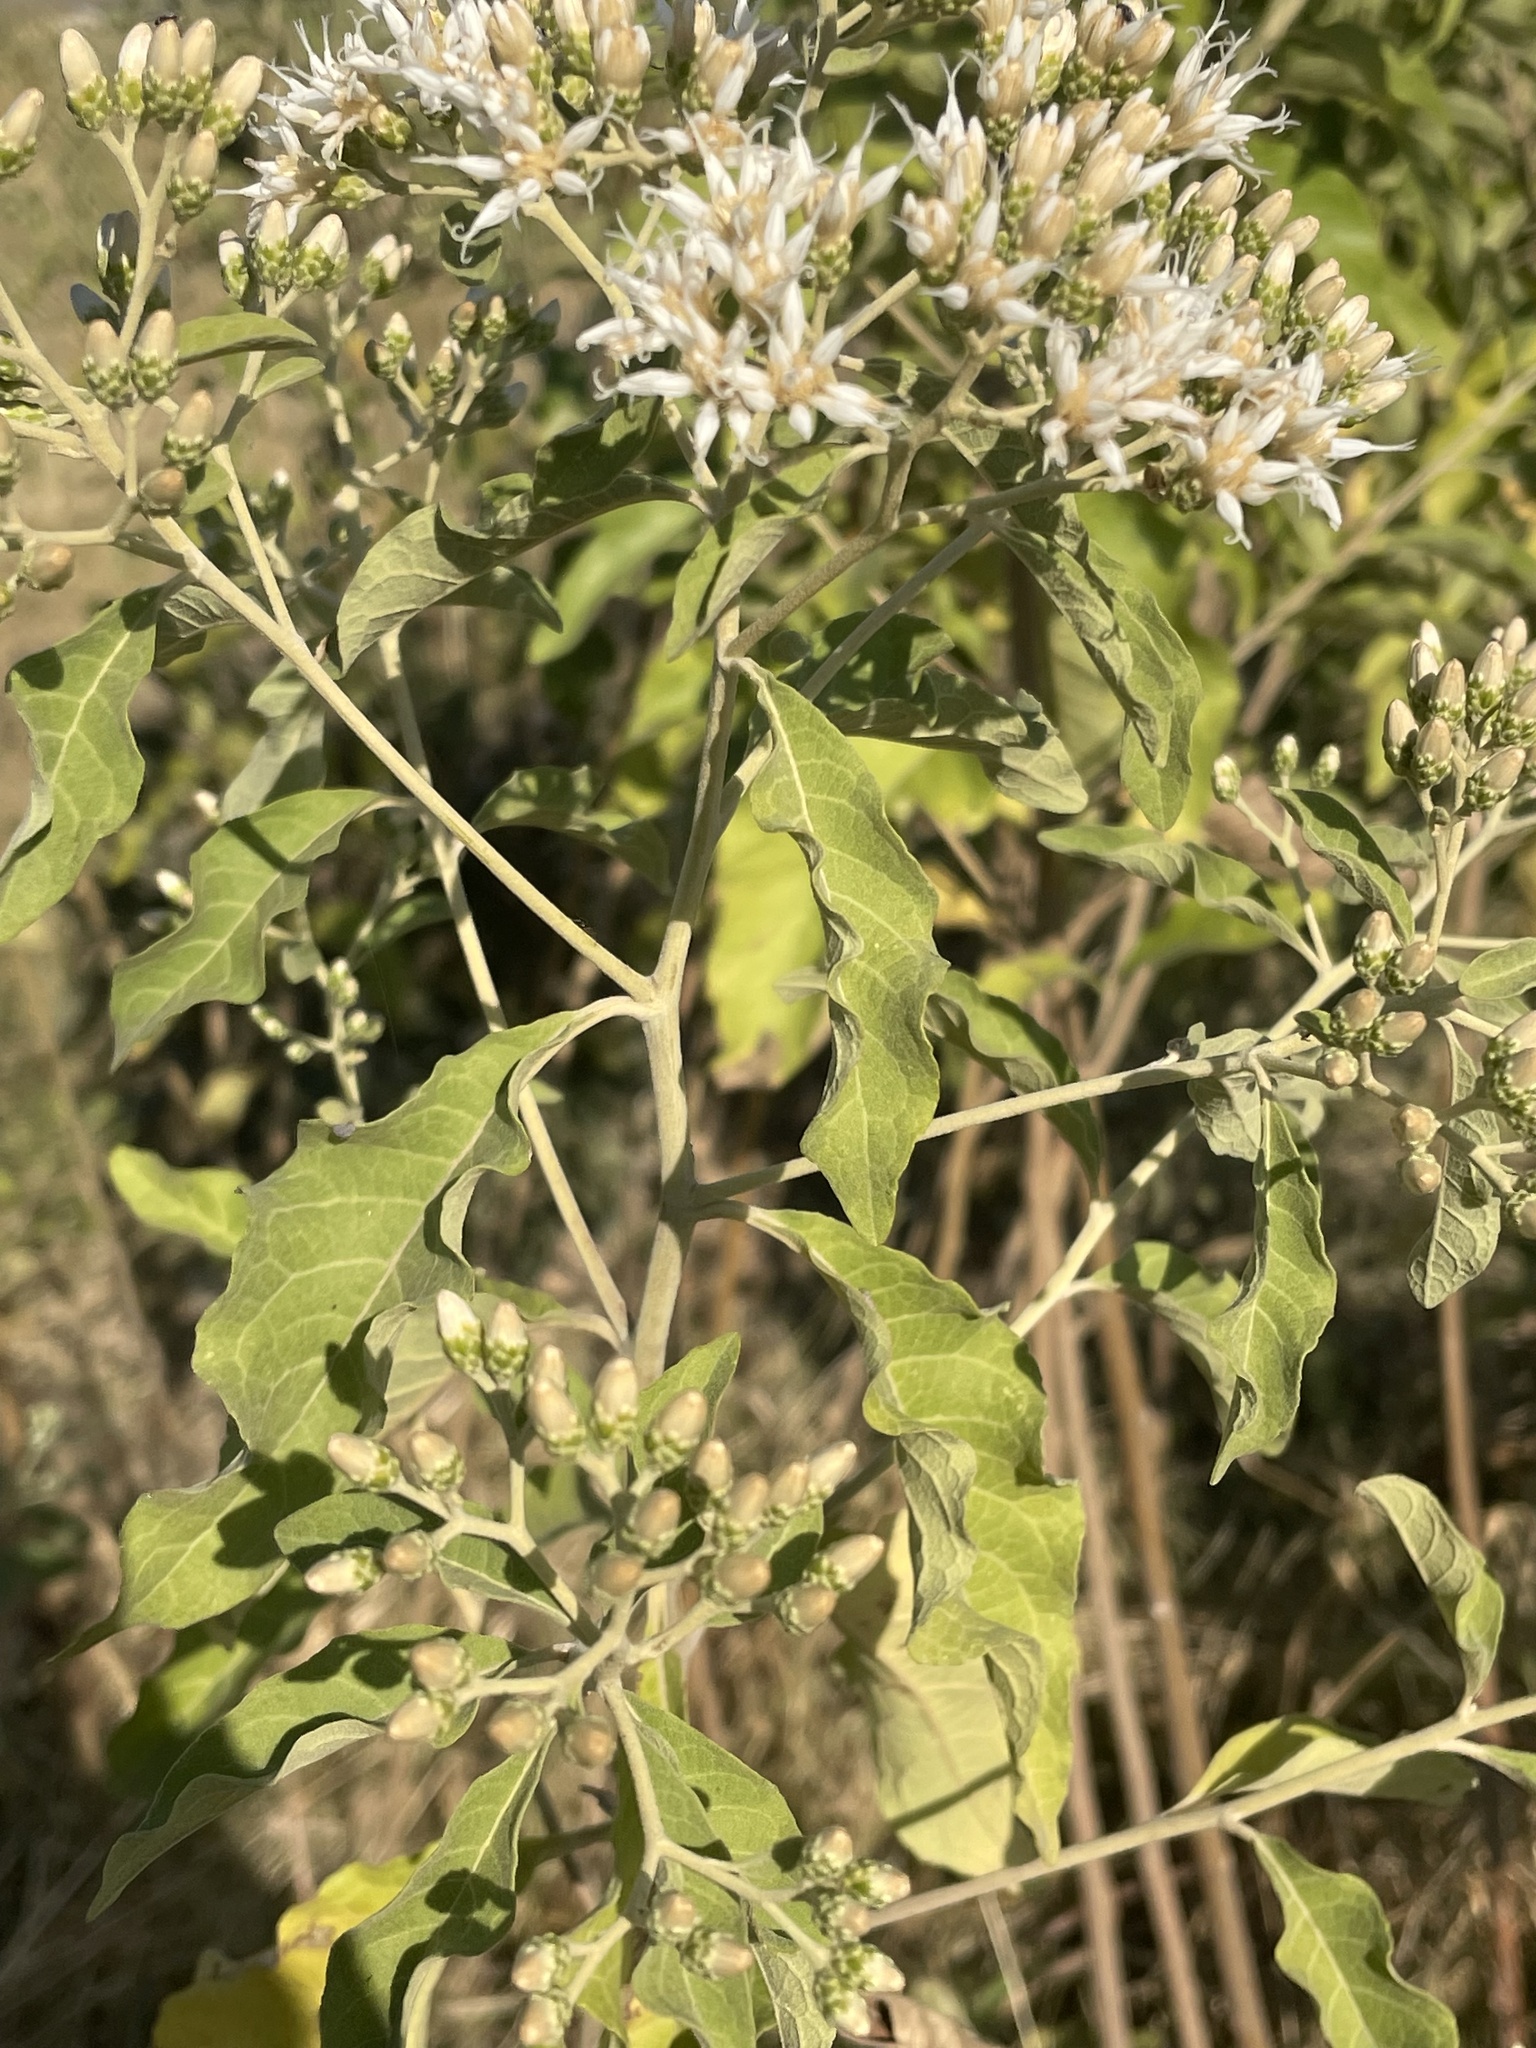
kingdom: Plantae
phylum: Tracheophyta
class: Magnoliopsida
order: Asterales
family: Asteraceae
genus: Gymnanthemum
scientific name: Gymnanthemum amygdalinum
